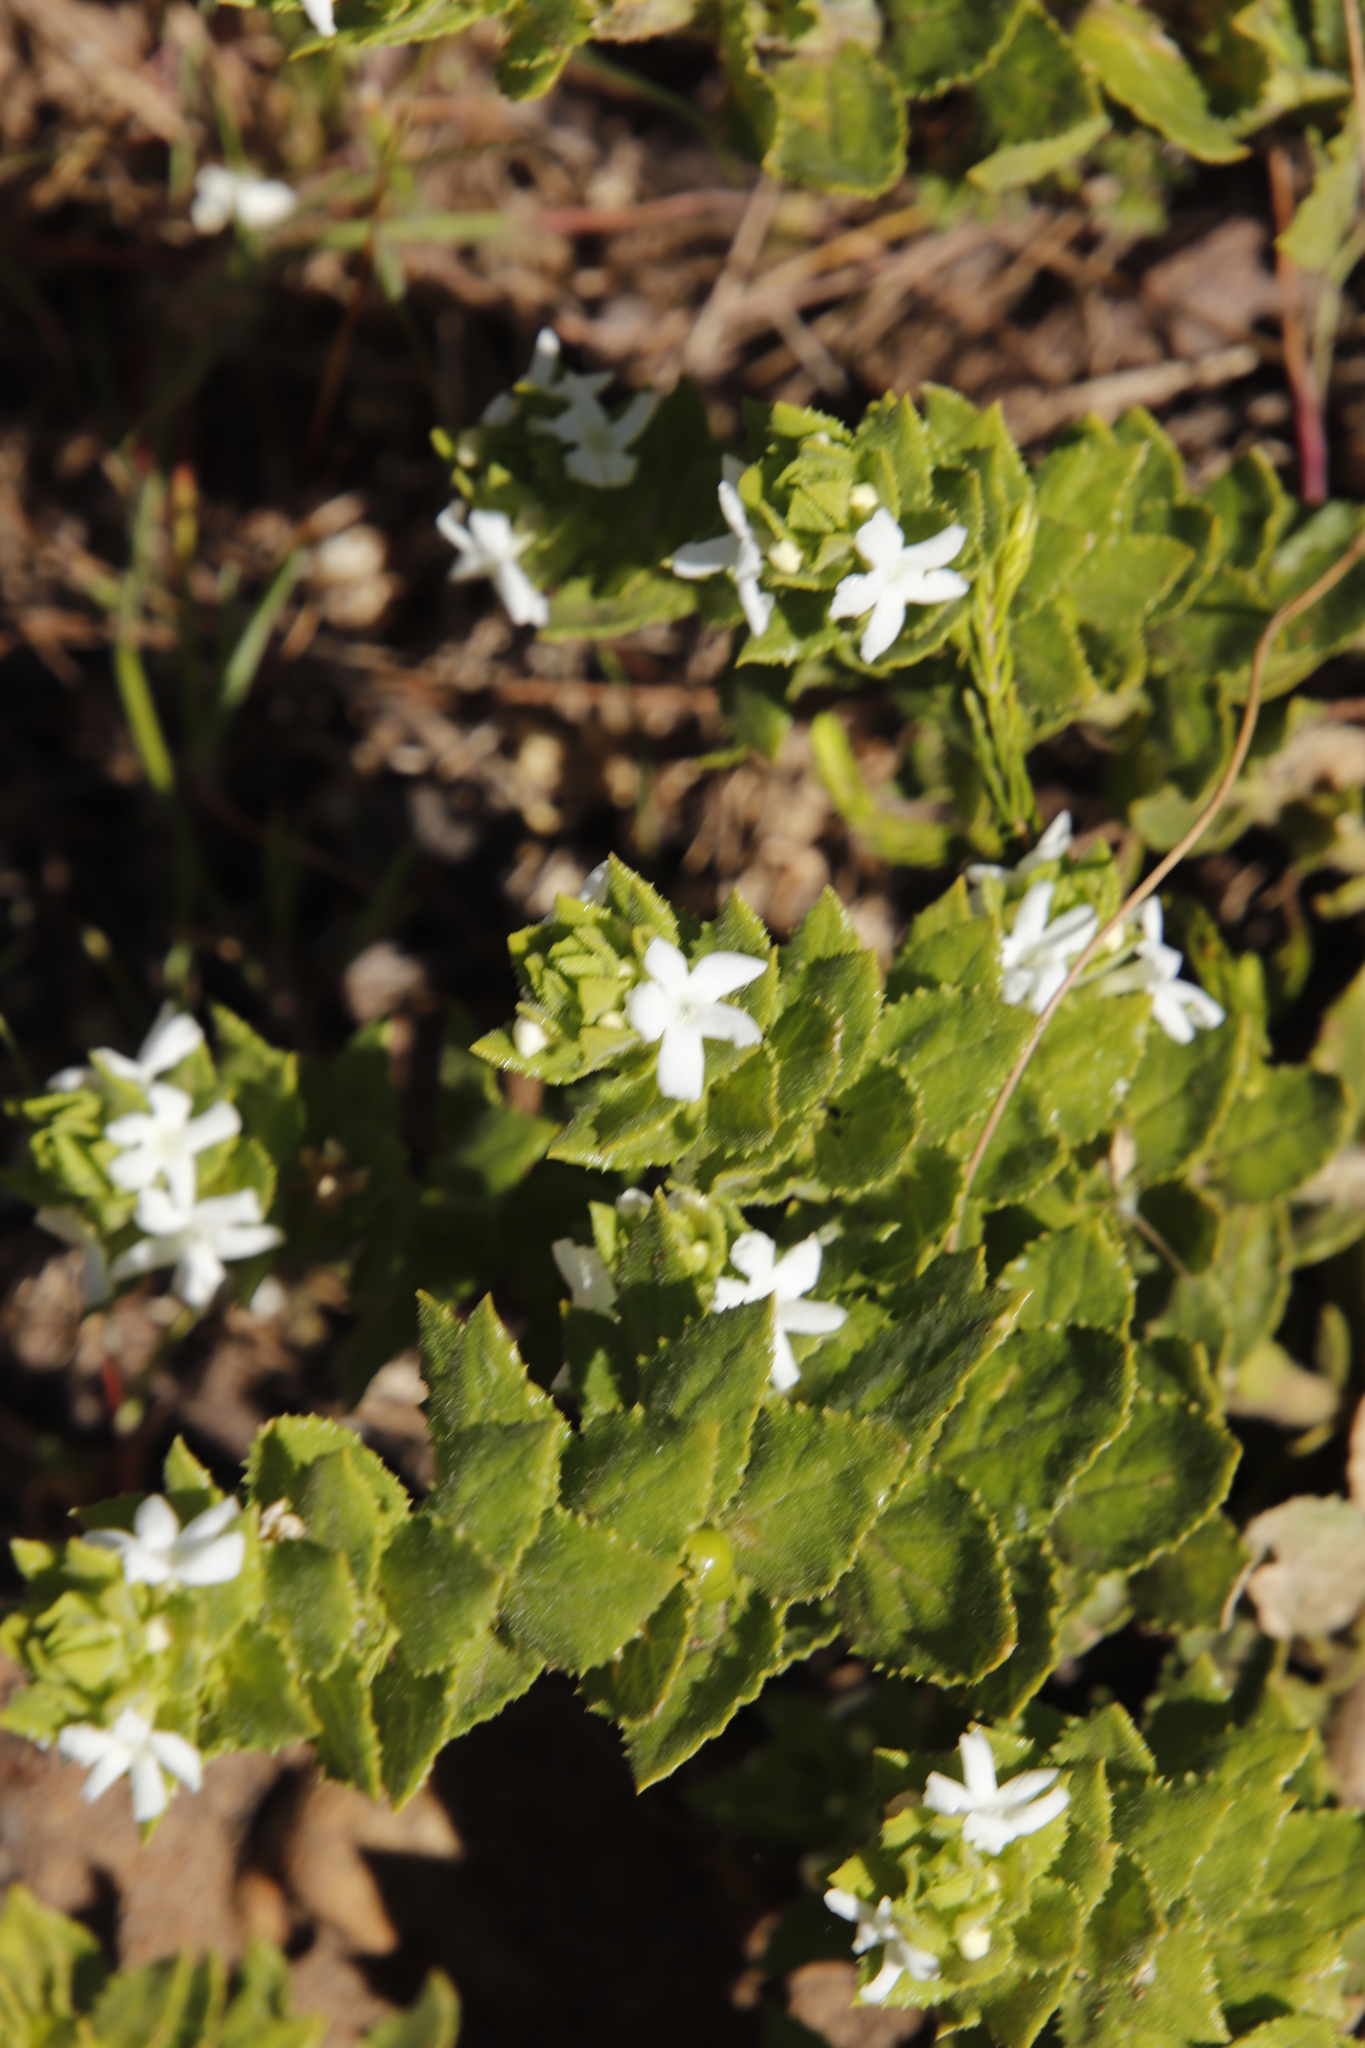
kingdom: Plantae
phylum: Tracheophyta
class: Magnoliopsida
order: Lamiales
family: Scrophulariaceae
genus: Oftia
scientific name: Oftia africana
